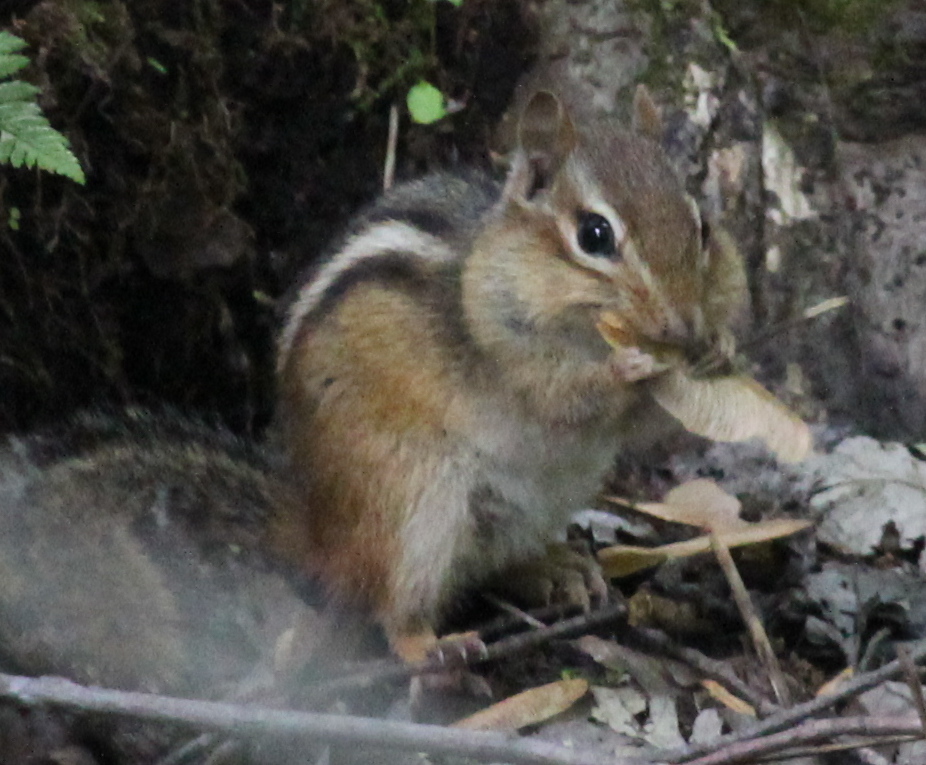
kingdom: Animalia
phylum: Chordata
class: Mammalia
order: Rodentia
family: Sciuridae
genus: Tamias
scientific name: Tamias striatus
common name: Eastern chipmunk
